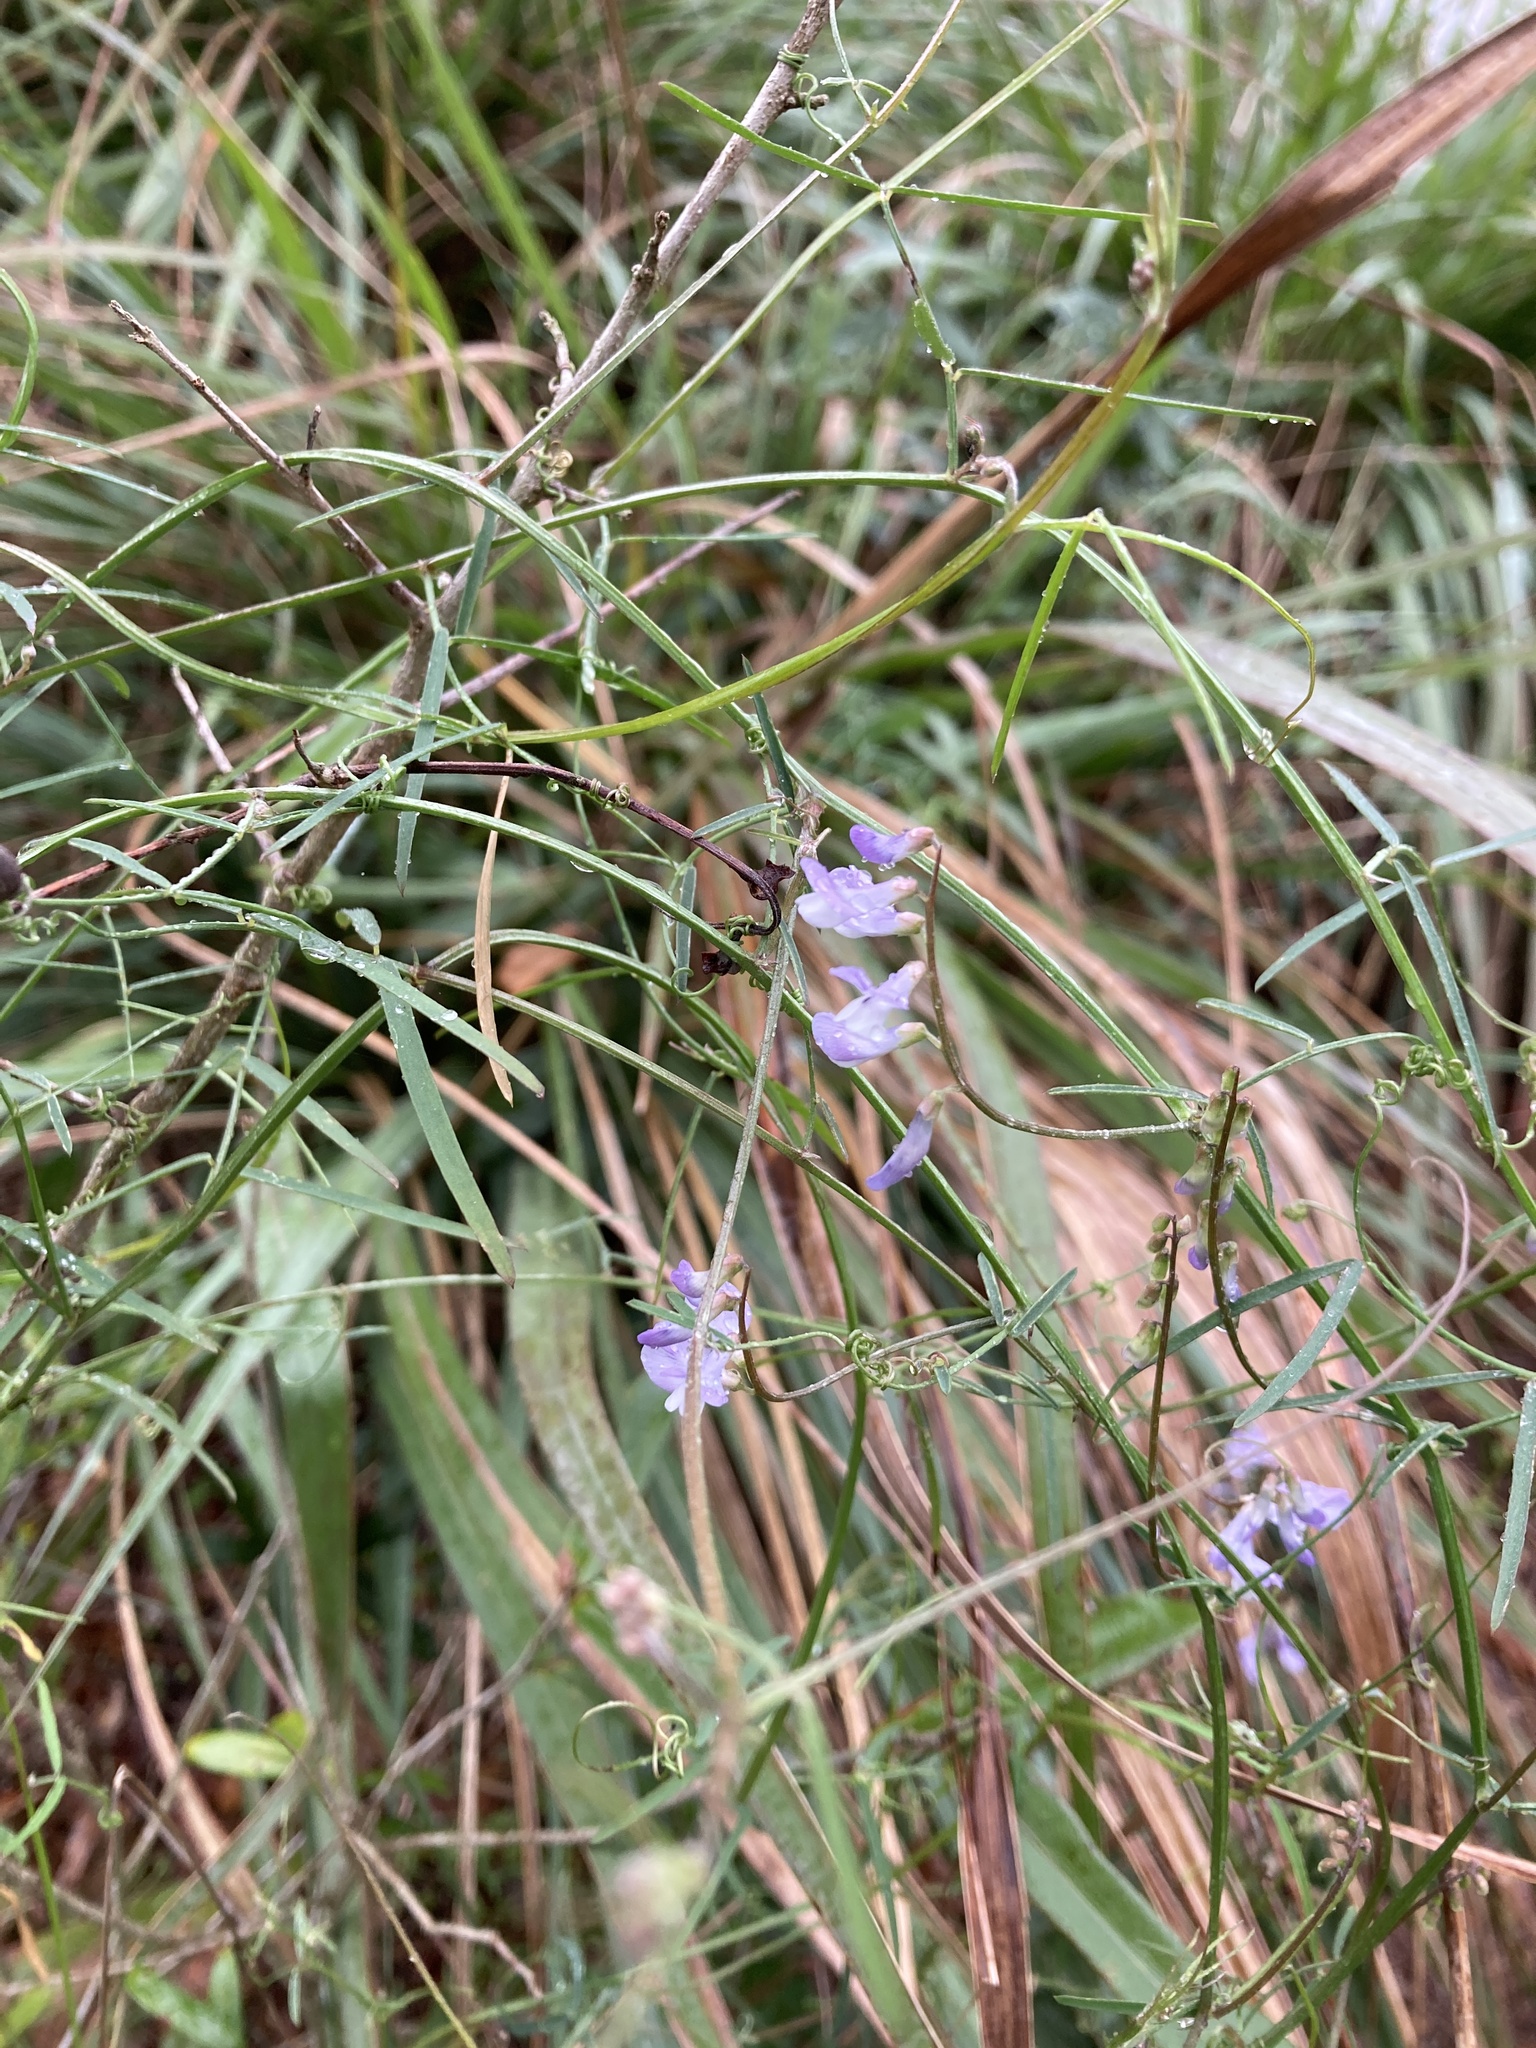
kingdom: Plantae
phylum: Tracheophyta
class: Magnoliopsida
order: Fabales
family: Fabaceae
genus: Vicia
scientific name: Vicia acutifolia
